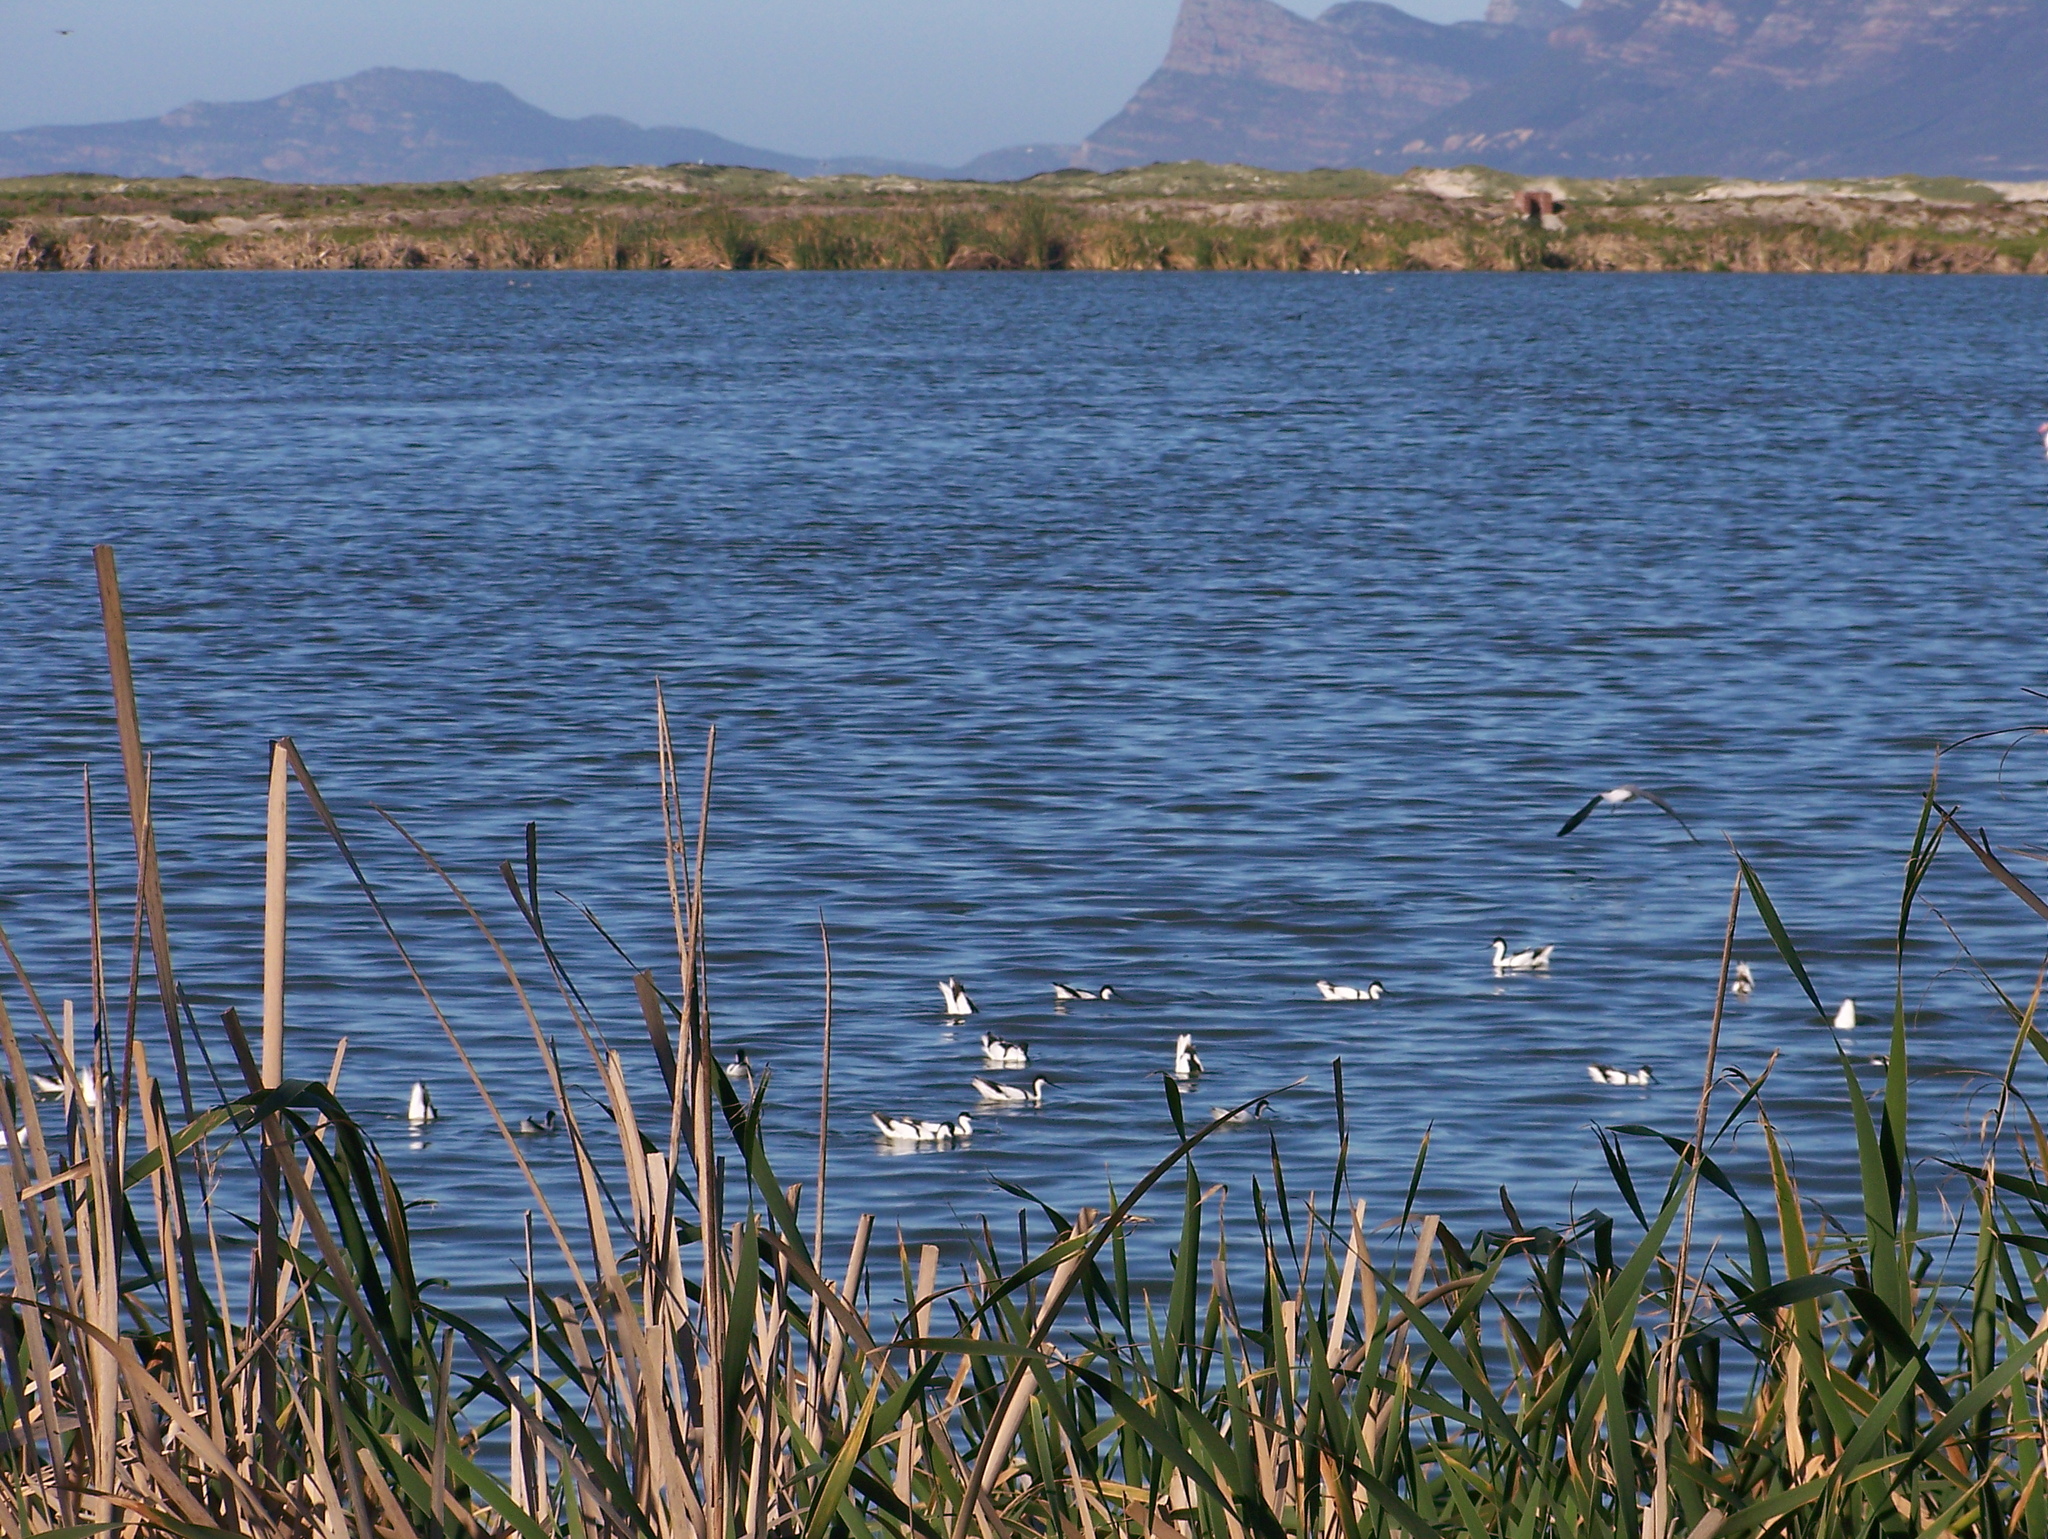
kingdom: Animalia
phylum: Chordata
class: Aves
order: Charadriiformes
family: Recurvirostridae
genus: Recurvirostra
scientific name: Recurvirostra avosetta
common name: Pied avocet
